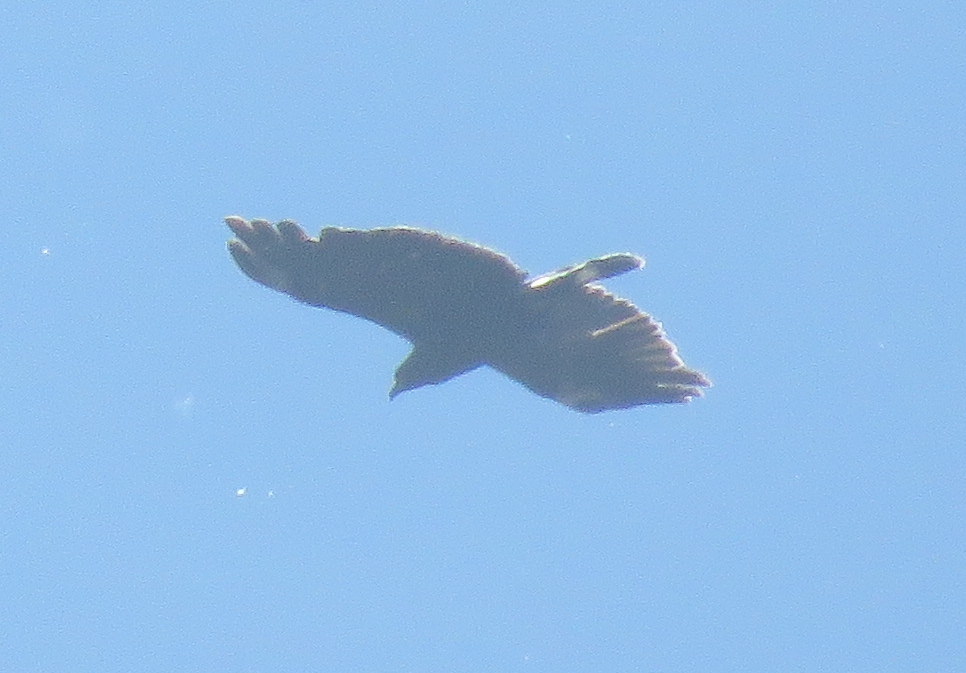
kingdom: Animalia
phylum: Chordata
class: Aves
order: Accipitriformes
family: Accipitridae
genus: Buteogallus
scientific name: Buteogallus urubitinga
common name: Great black hawk
